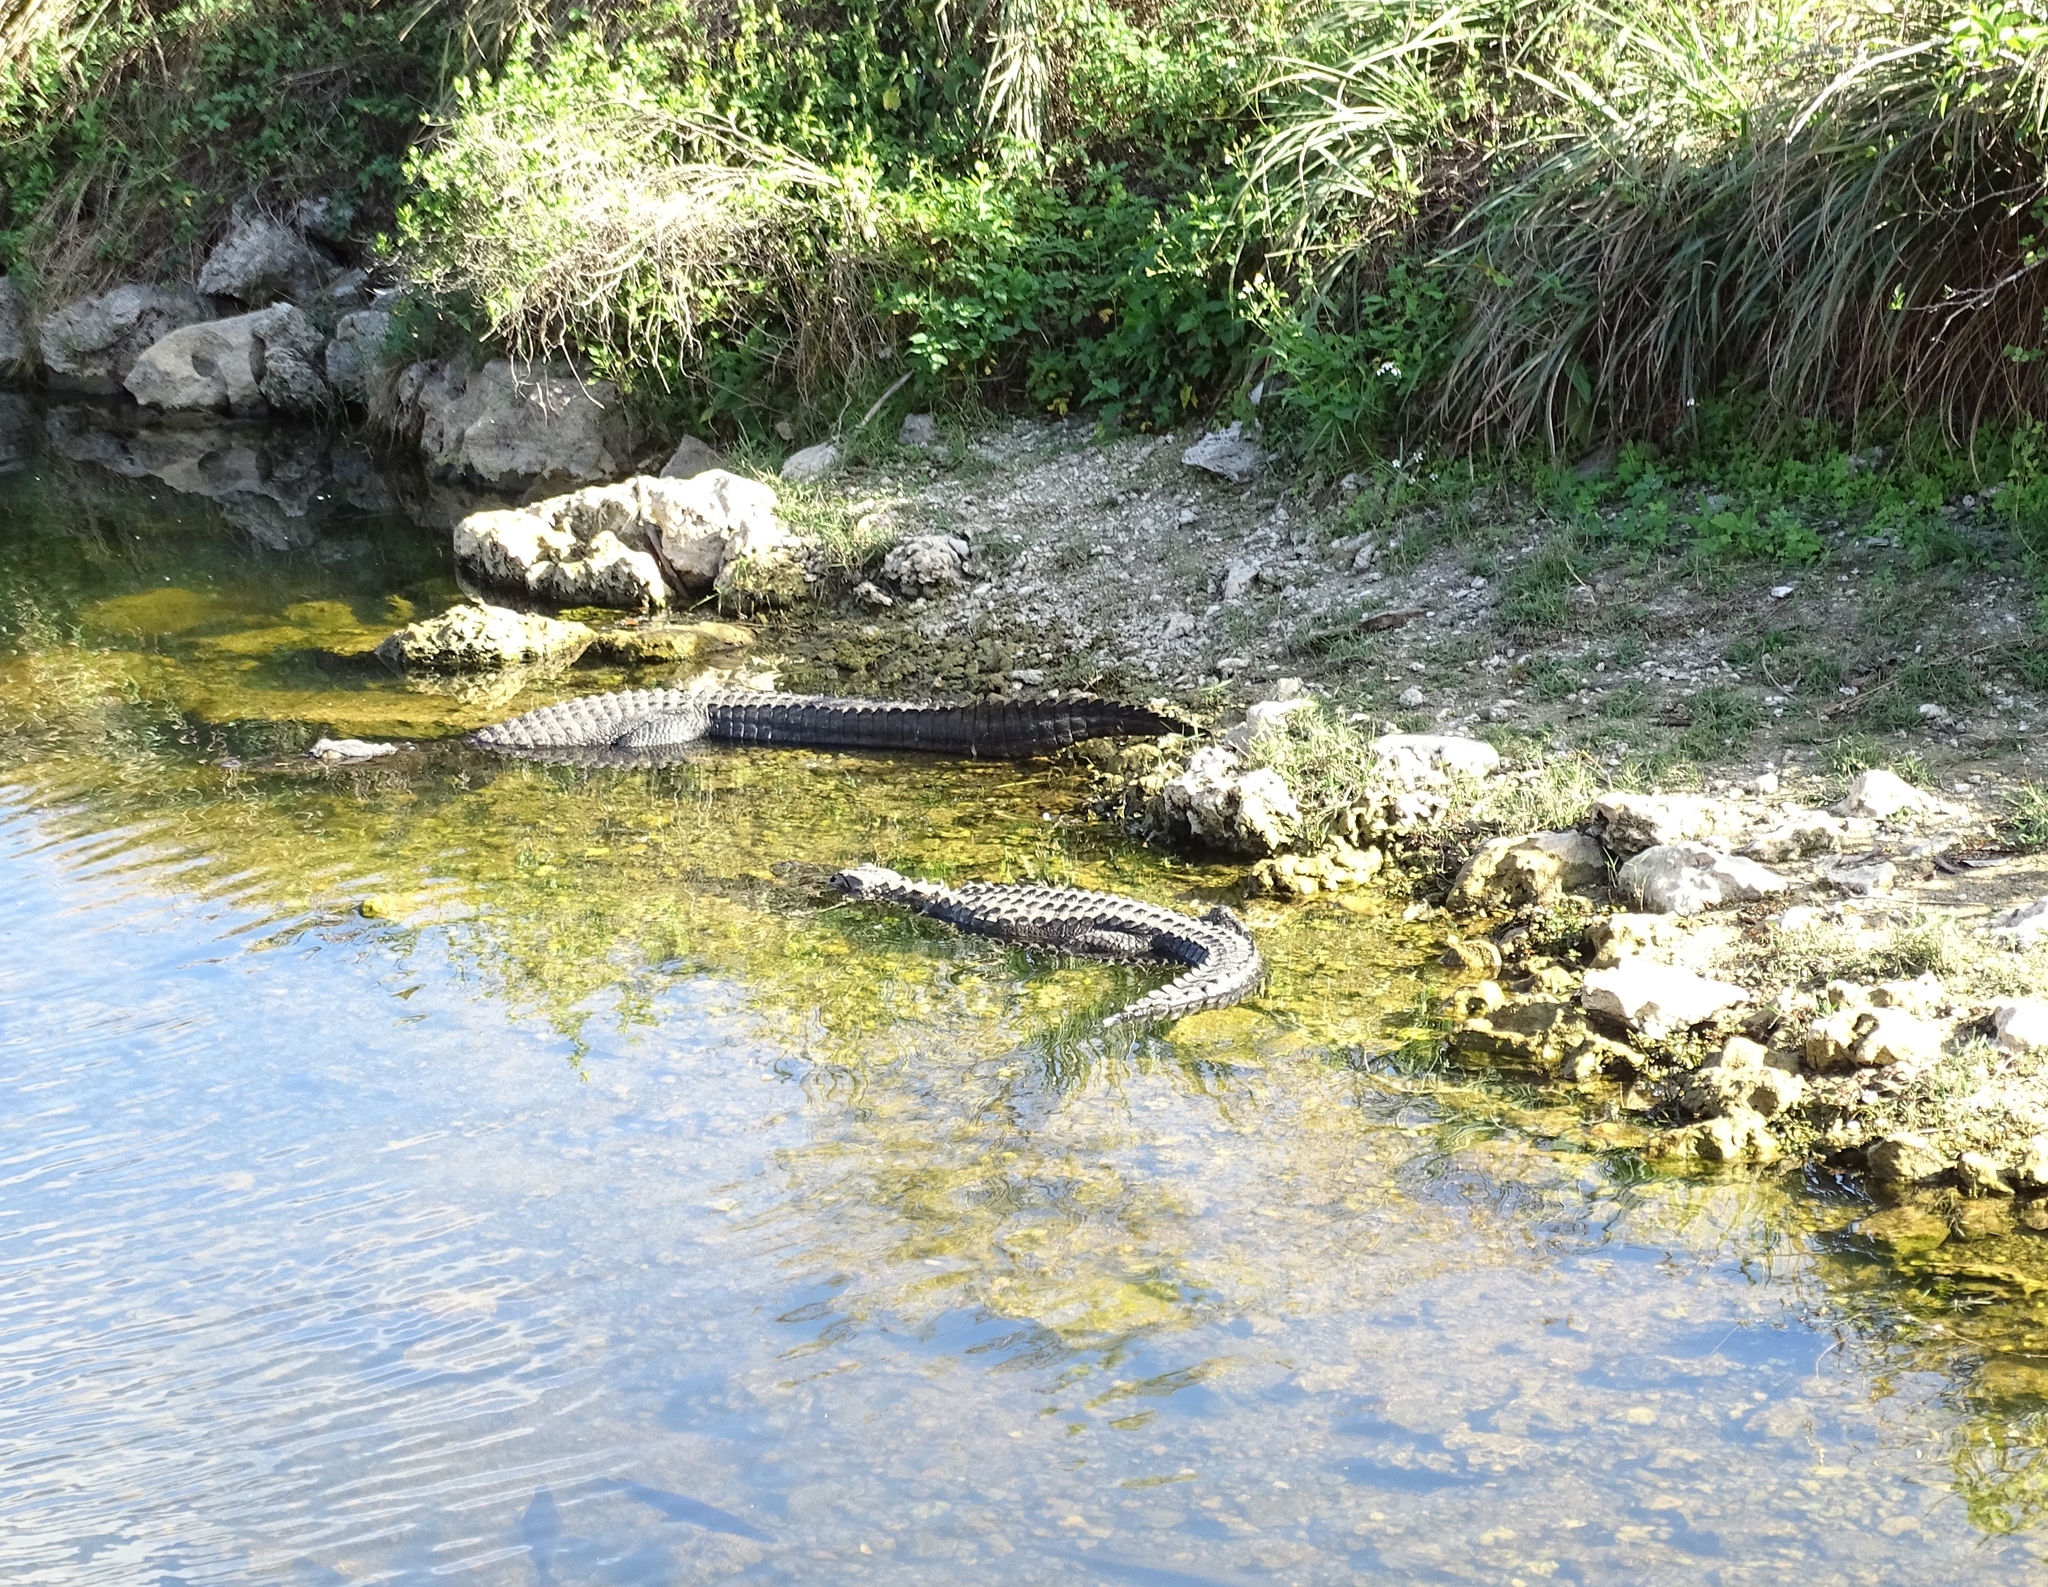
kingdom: Animalia
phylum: Chordata
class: Crocodylia
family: Alligatoridae
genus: Alligator
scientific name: Alligator mississippiensis
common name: American alligator
